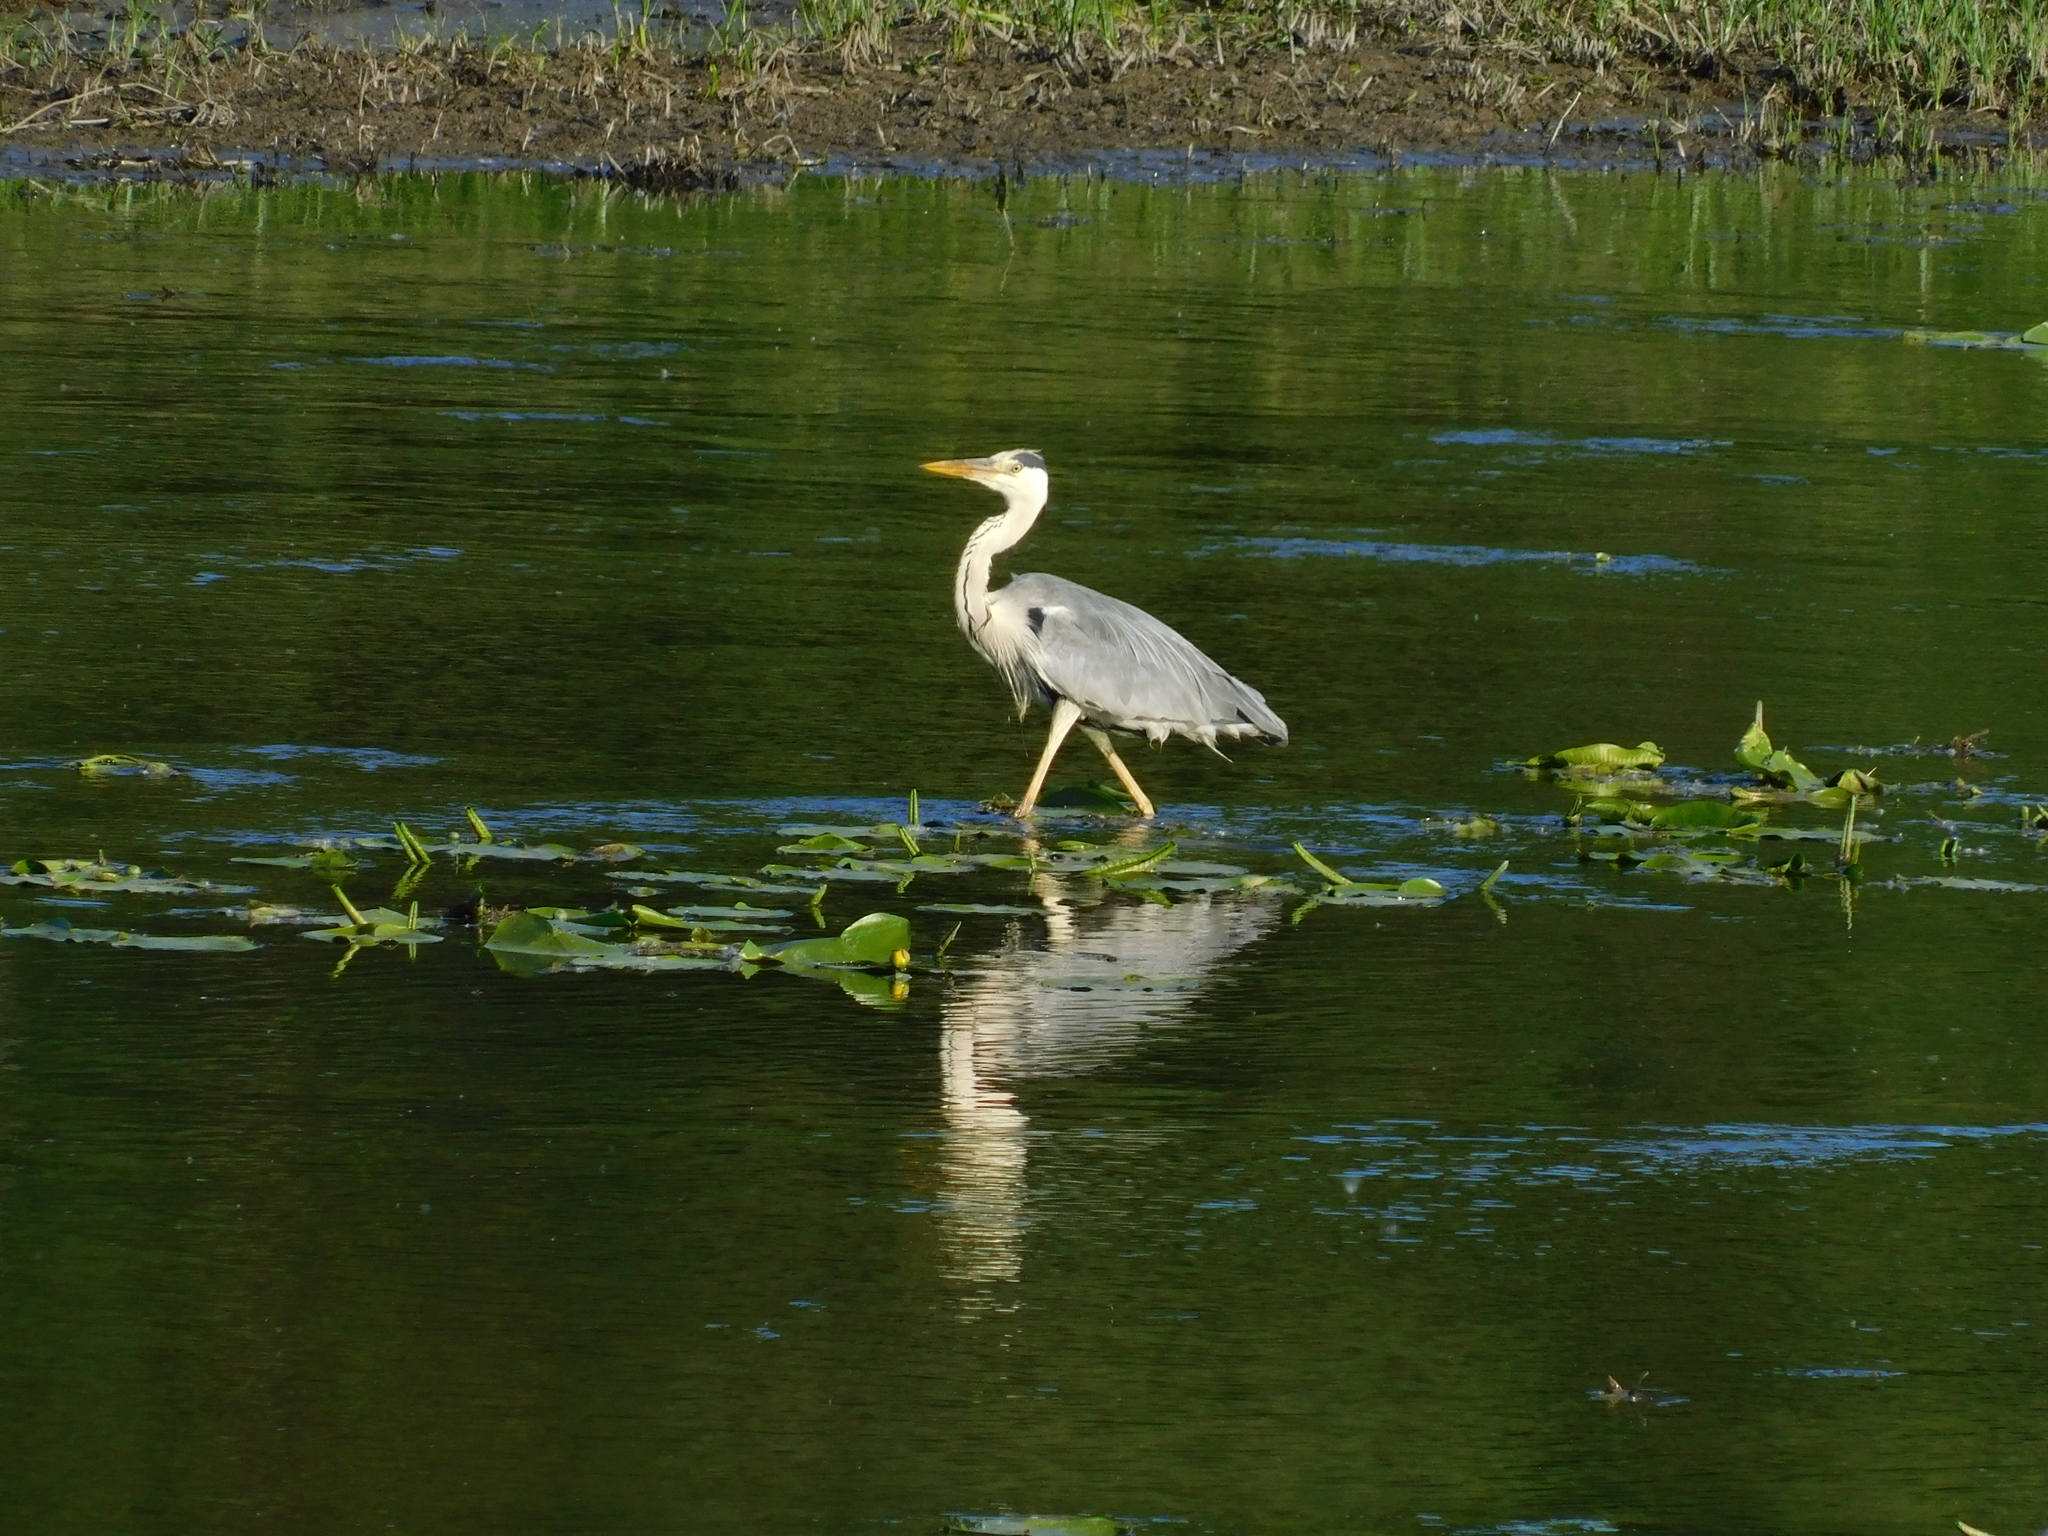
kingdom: Animalia
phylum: Chordata
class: Aves
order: Pelecaniformes
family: Ardeidae
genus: Ardea
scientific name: Ardea cinerea
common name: Grey heron
